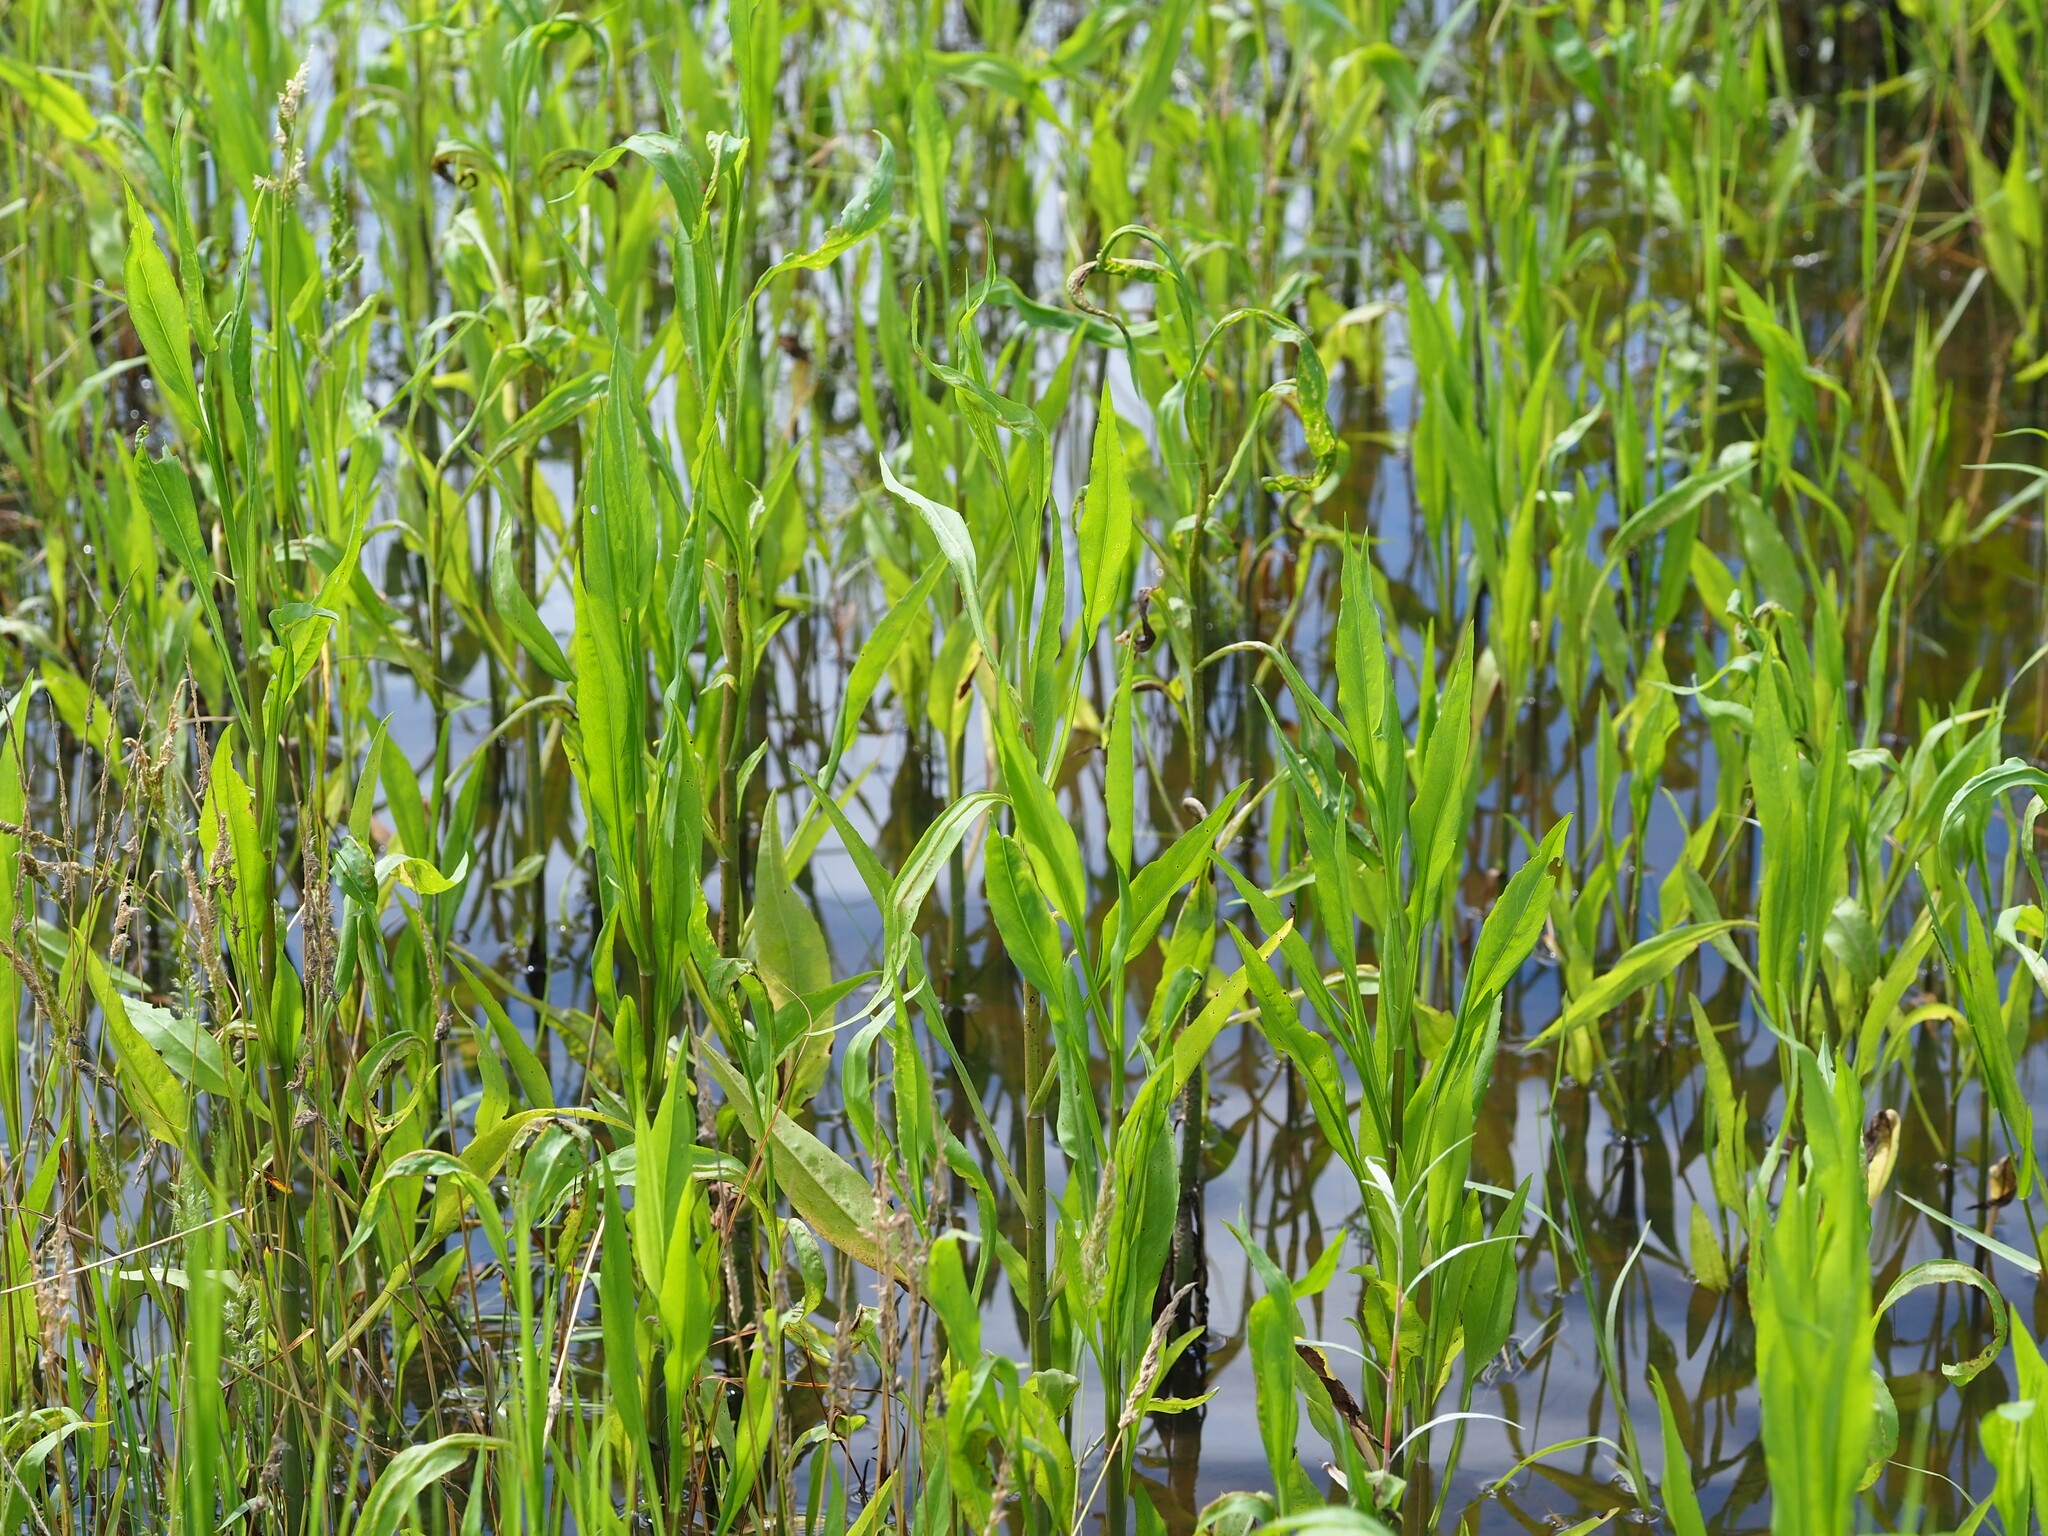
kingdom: Plantae
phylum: Tracheophyta
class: Magnoliopsida
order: Asterales
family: Asteraceae
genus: Symphyotrichum
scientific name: Symphyotrichum subulatum
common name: Annual saltmarsh aster
